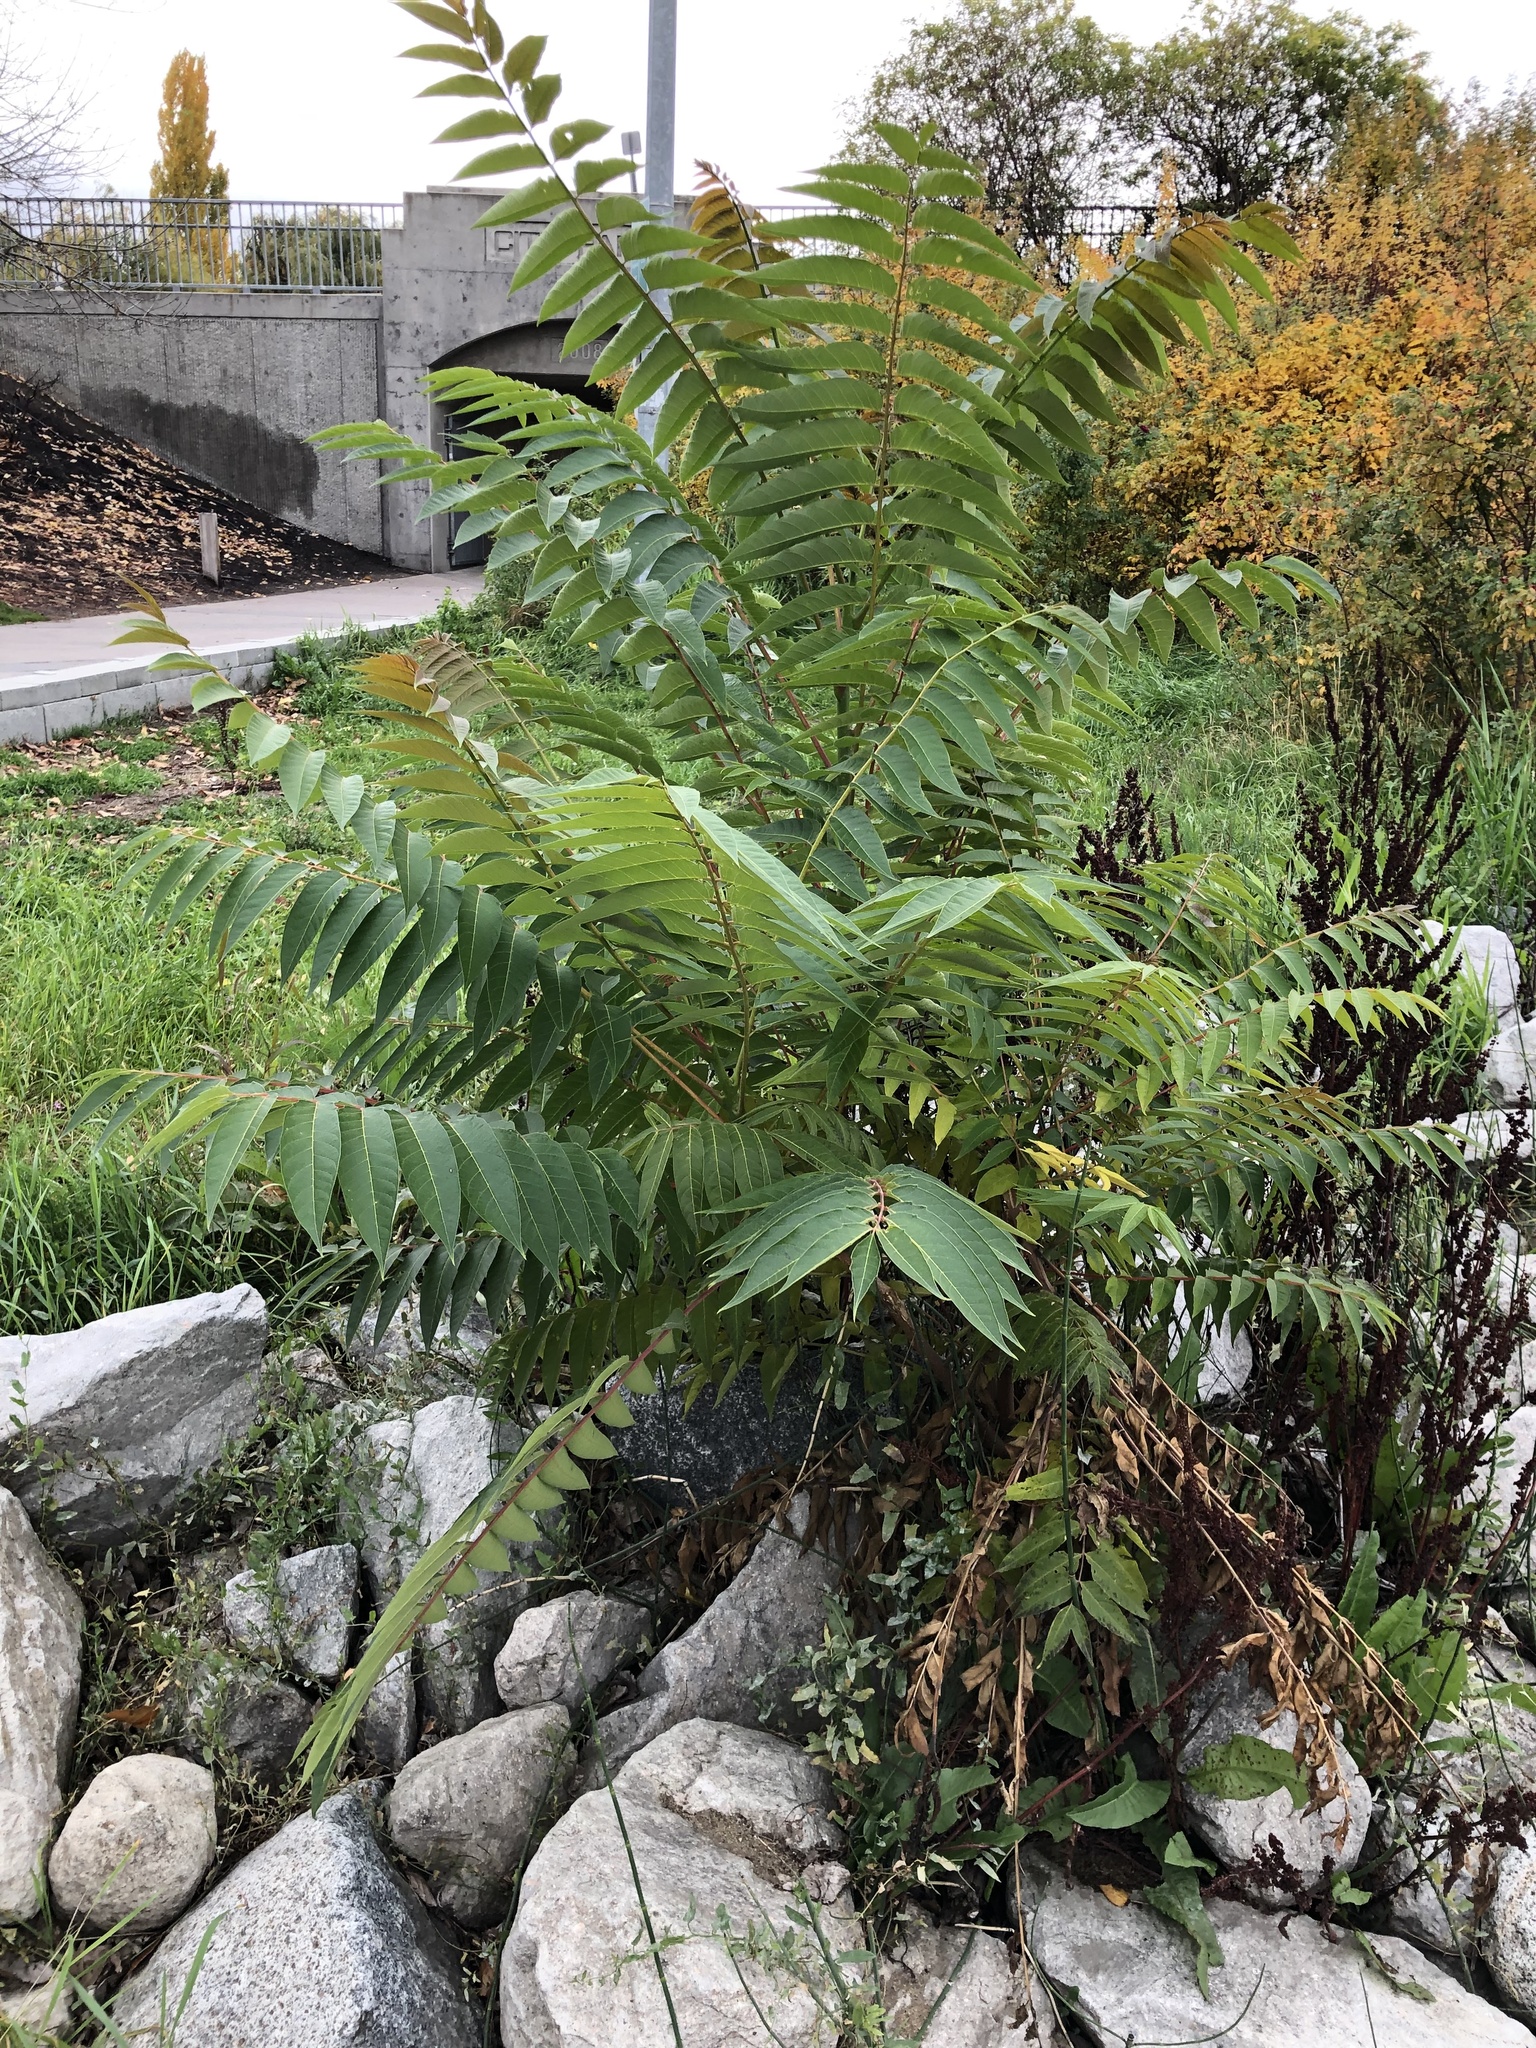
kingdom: Plantae
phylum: Tracheophyta
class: Magnoliopsida
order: Sapindales
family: Simaroubaceae
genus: Ailanthus
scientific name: Ailanthus altissima
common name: Tree-of-heaven
